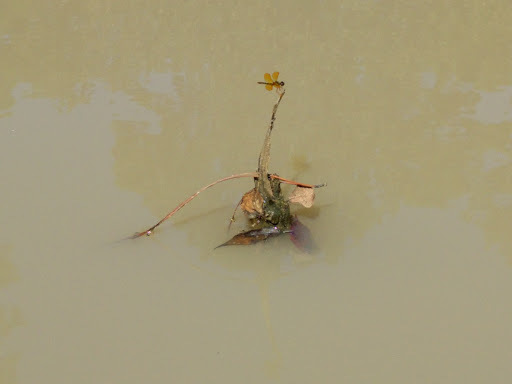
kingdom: Animalia
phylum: Arthropoda
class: Insecta
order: Odonata
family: Libellulidae
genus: Perithemis
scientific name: Perithemis tenera
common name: Eastern amberwing
